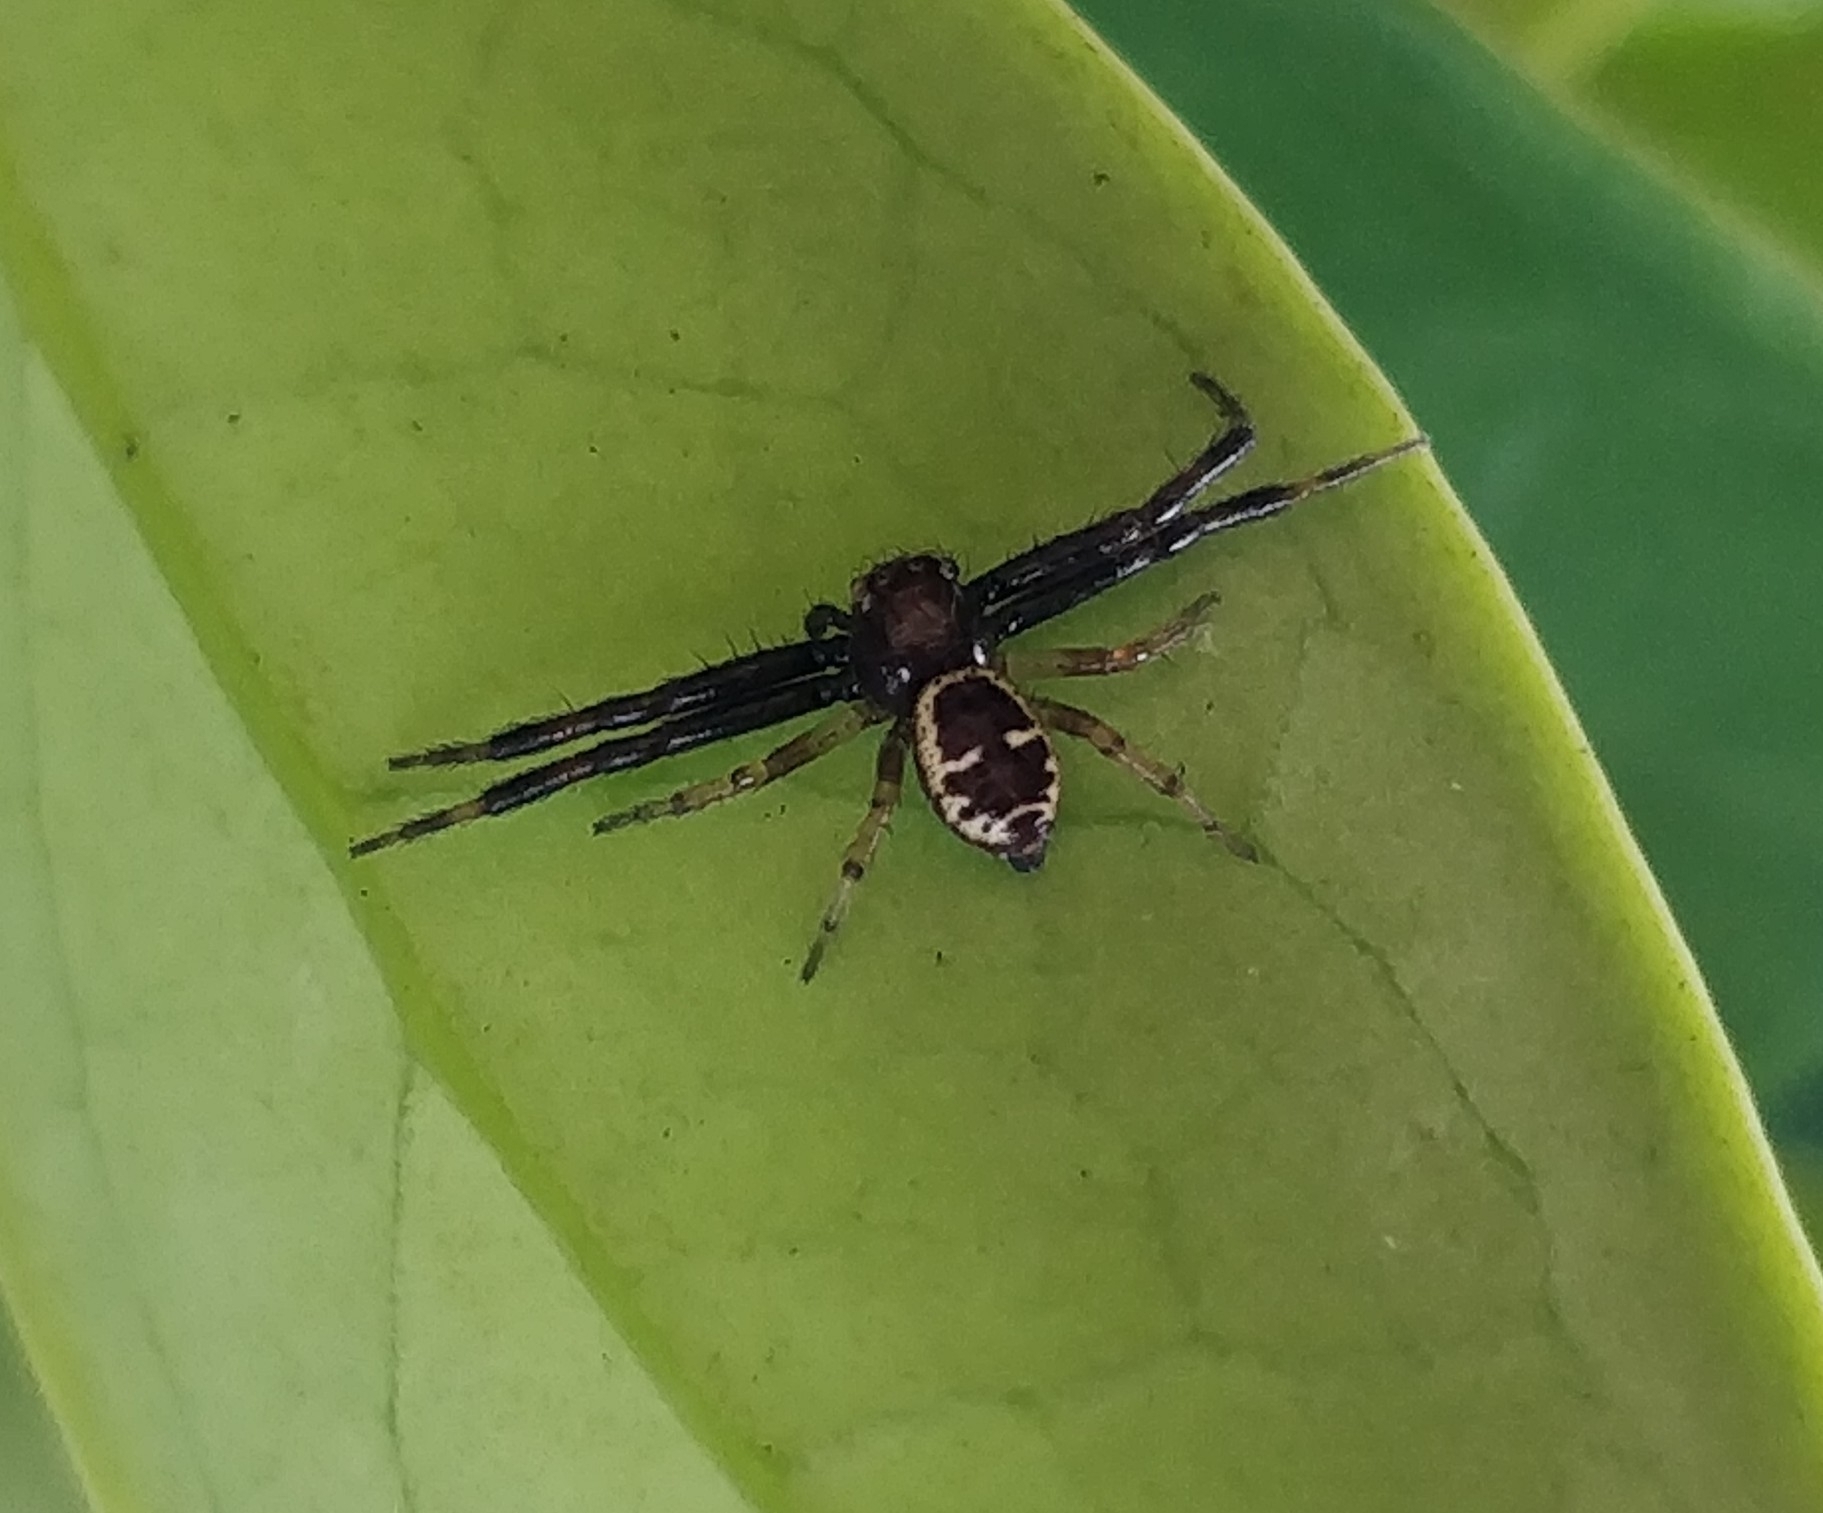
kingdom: Animalia
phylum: Arthropoda
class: Arachnida
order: Araneae
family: Thomisidae
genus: Synema
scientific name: Synema globosum
